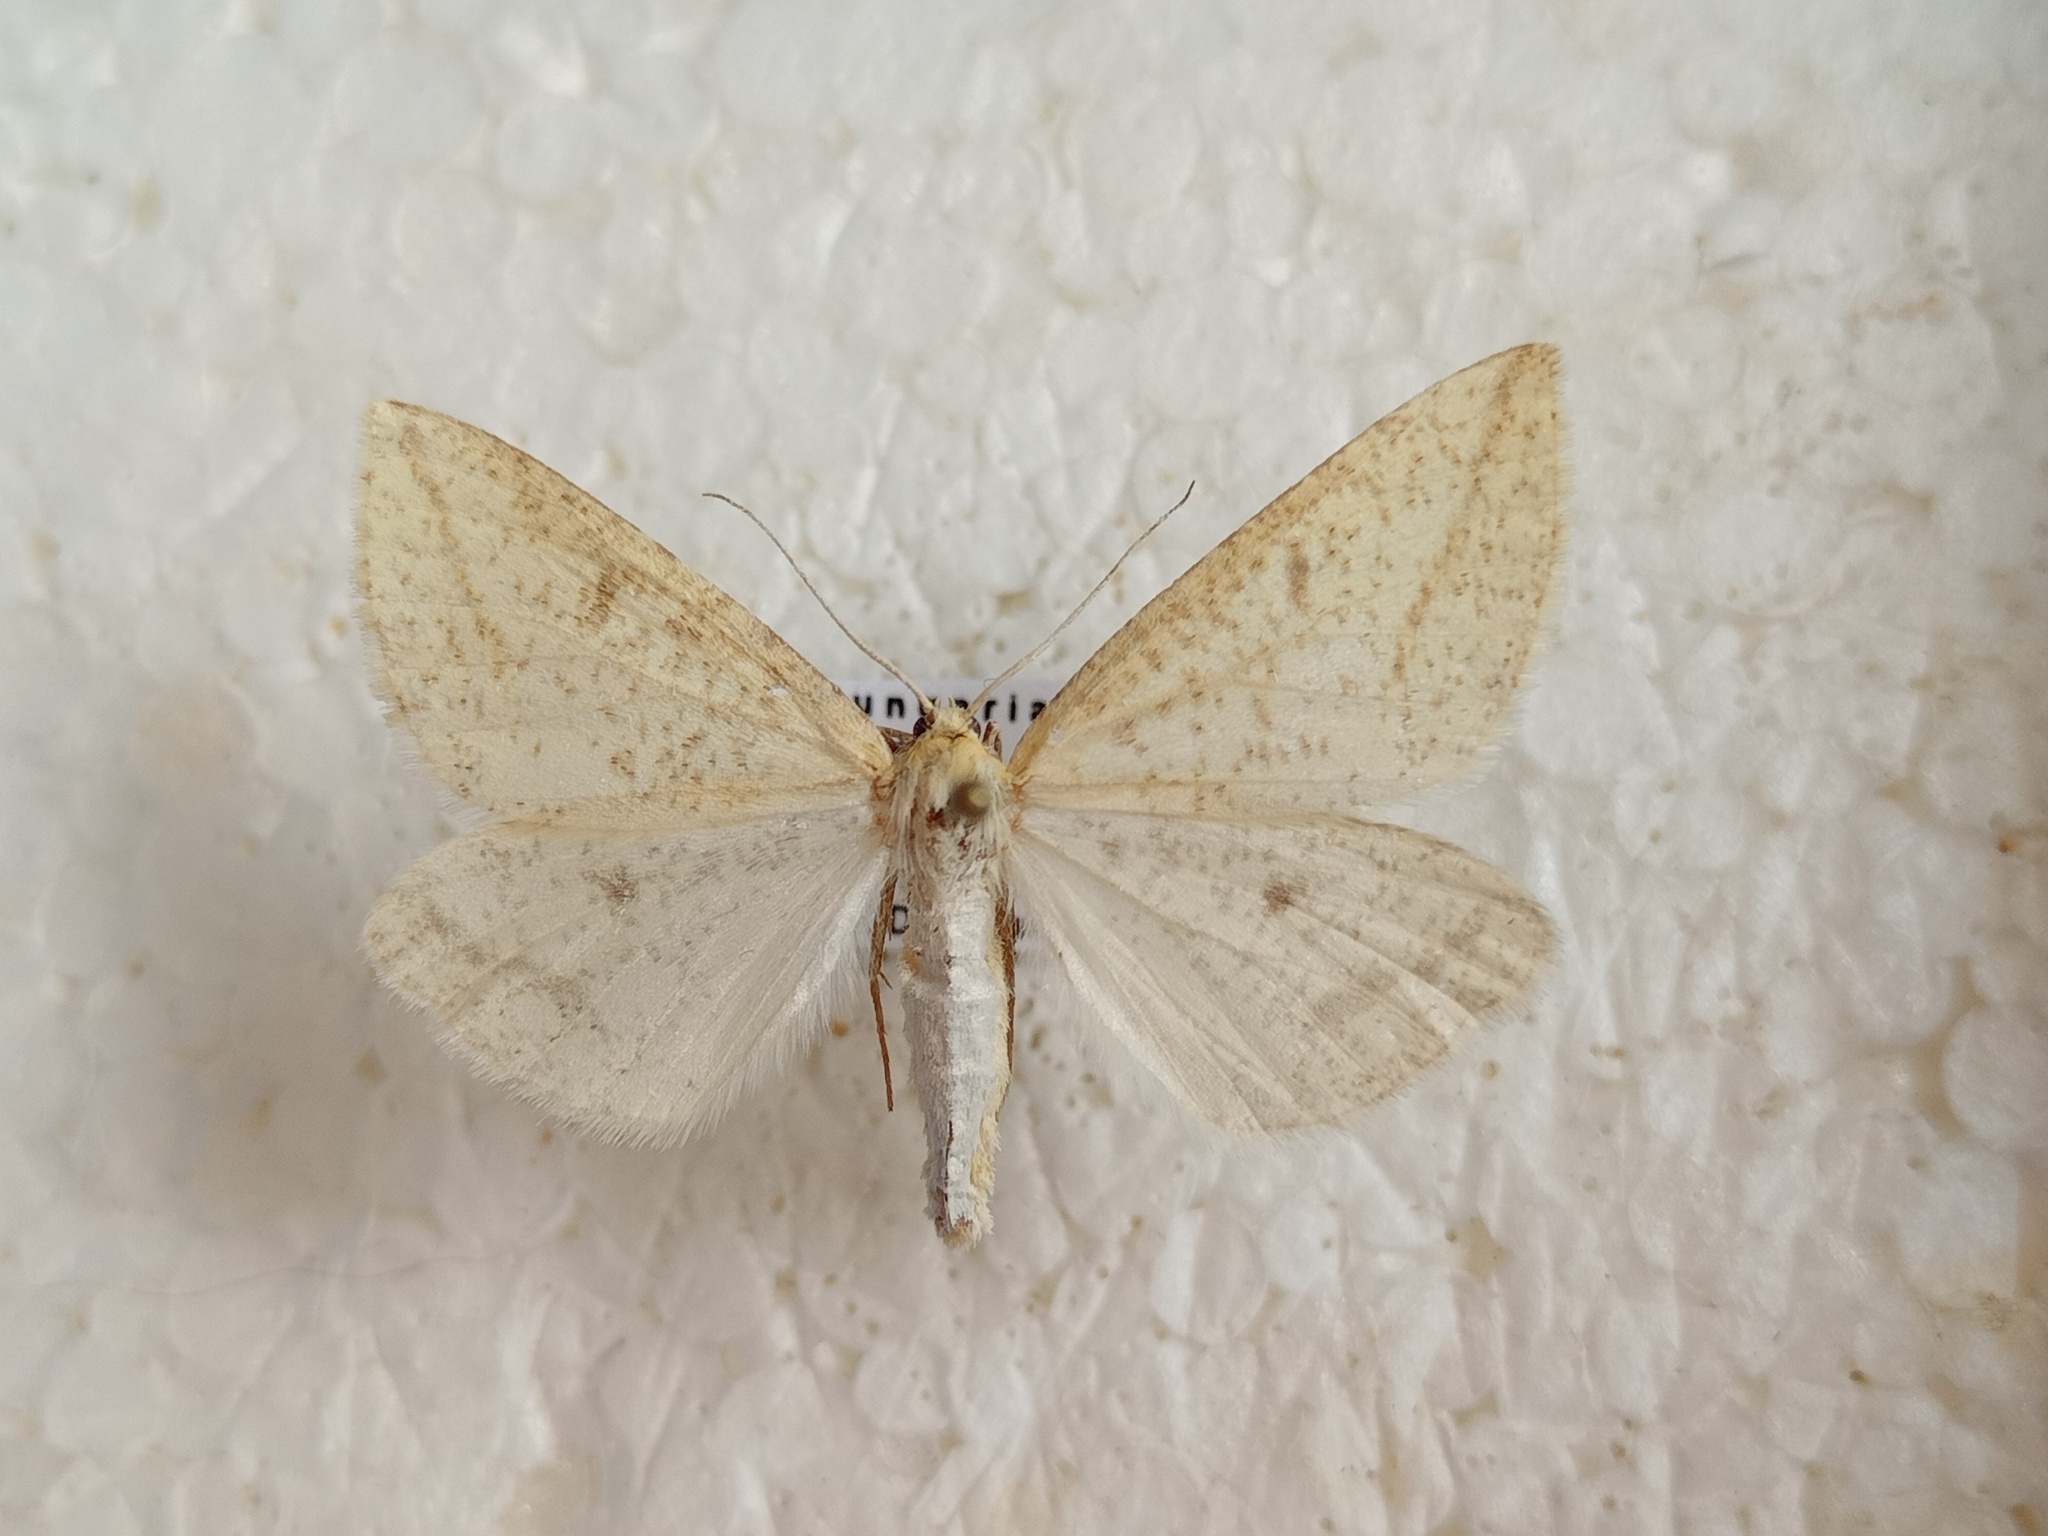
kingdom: Animalia
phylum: Arthropoda
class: Insecta
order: Lepidoptera
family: Geometridae
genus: Aspitates
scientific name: Aspitates gilvaria
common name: Straw belle
